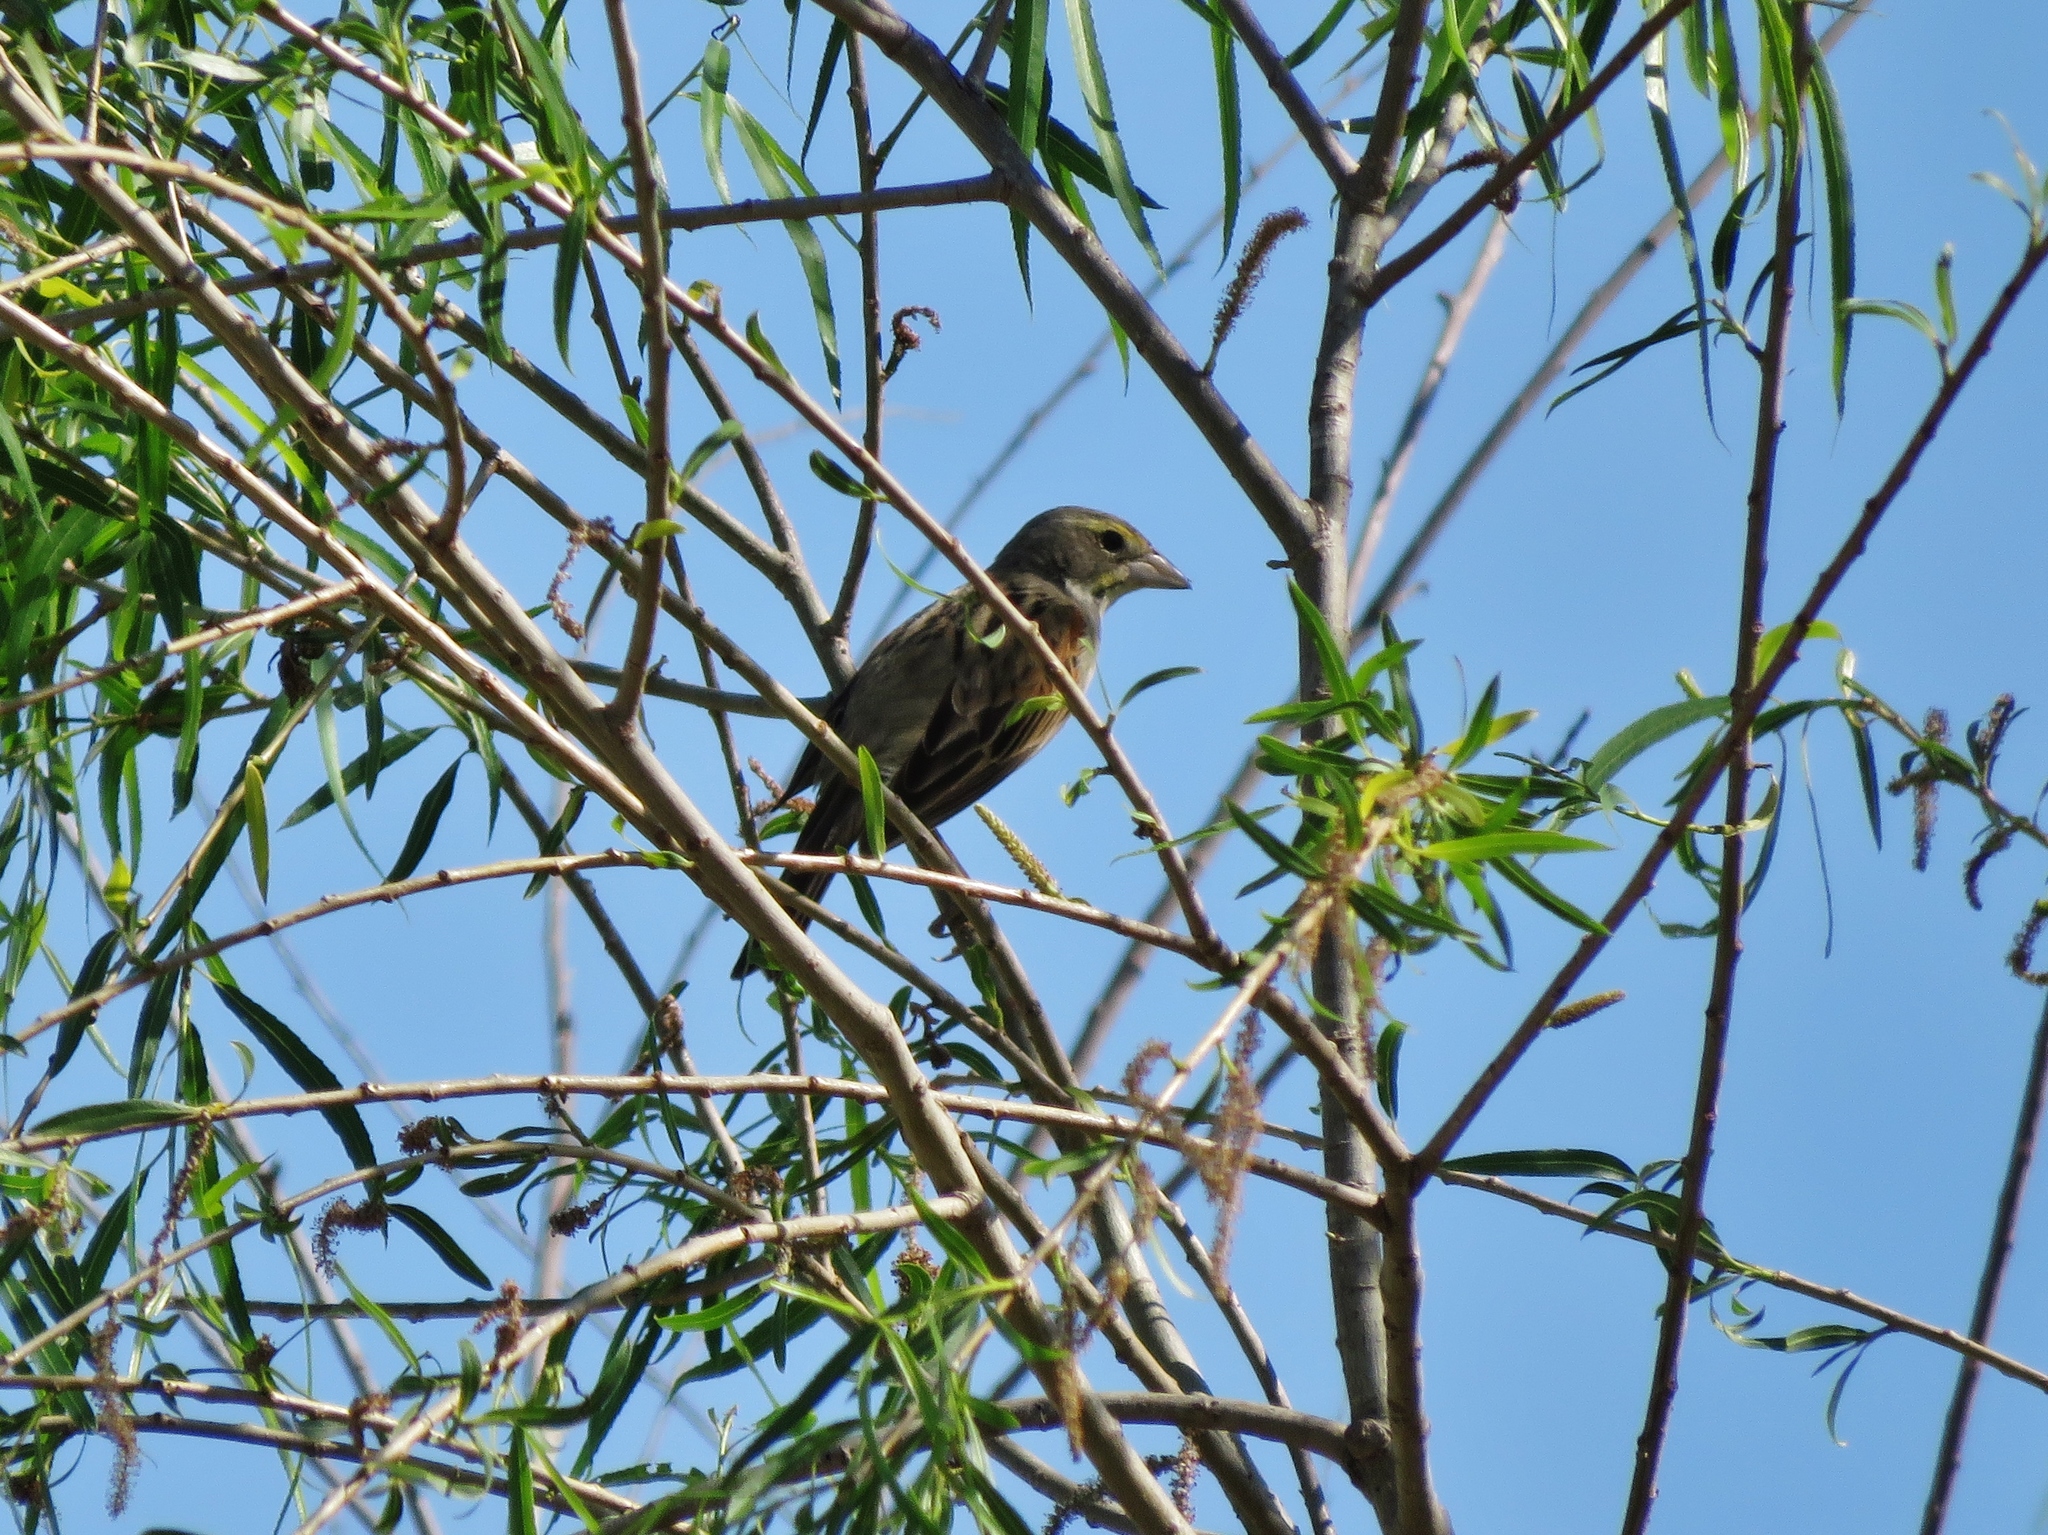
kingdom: Animalia
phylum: Chordata
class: Aves
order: Passeriformes
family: Cardinalidae
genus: Spiza
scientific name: Spiza americana
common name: Dickcissel
